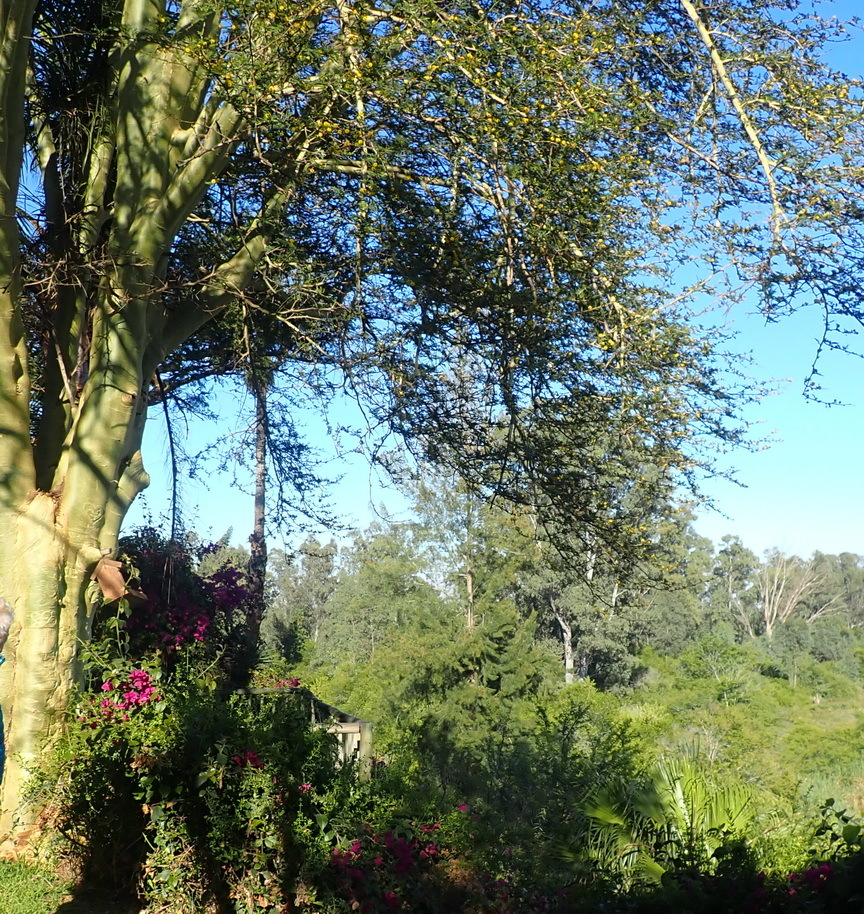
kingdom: Plantae
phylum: Tracheophyta
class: Magnoliopsida
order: Fabales
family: Fabaceae
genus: Vachellia
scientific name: Vachellia xanthophloea
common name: Fever tree
